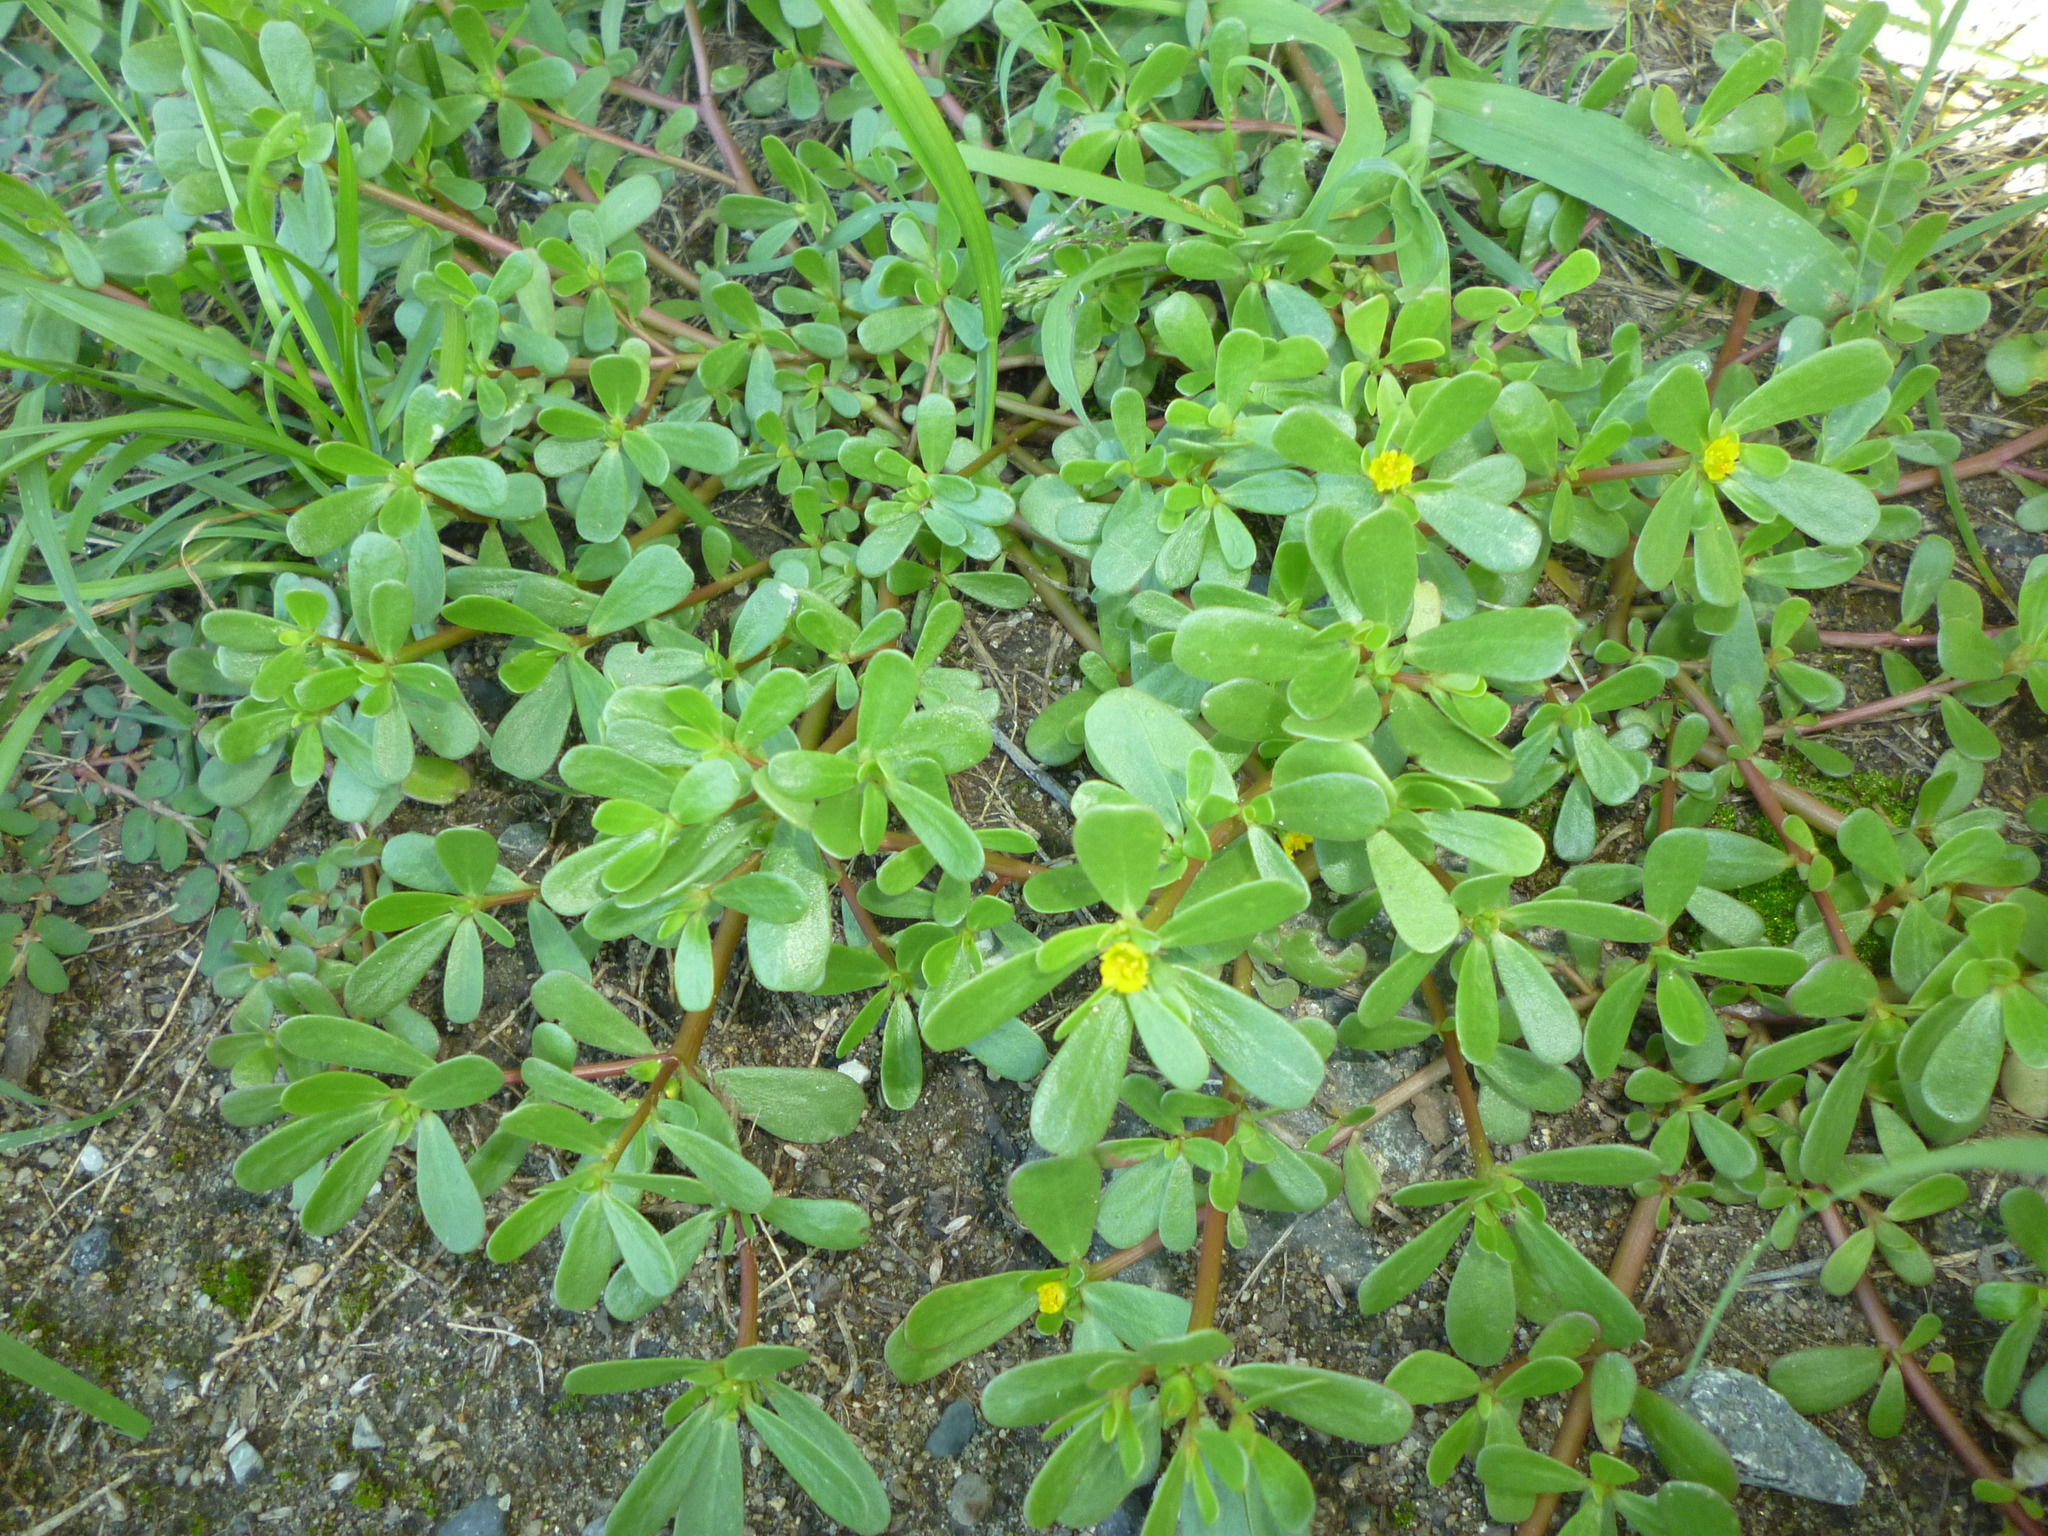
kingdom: Plantae
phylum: Tracheophyta
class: Magnoliopsida
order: Caryophyllales
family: Portulacaceae
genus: Portulaca
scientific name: Portulaca oleracea
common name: Common purslane
